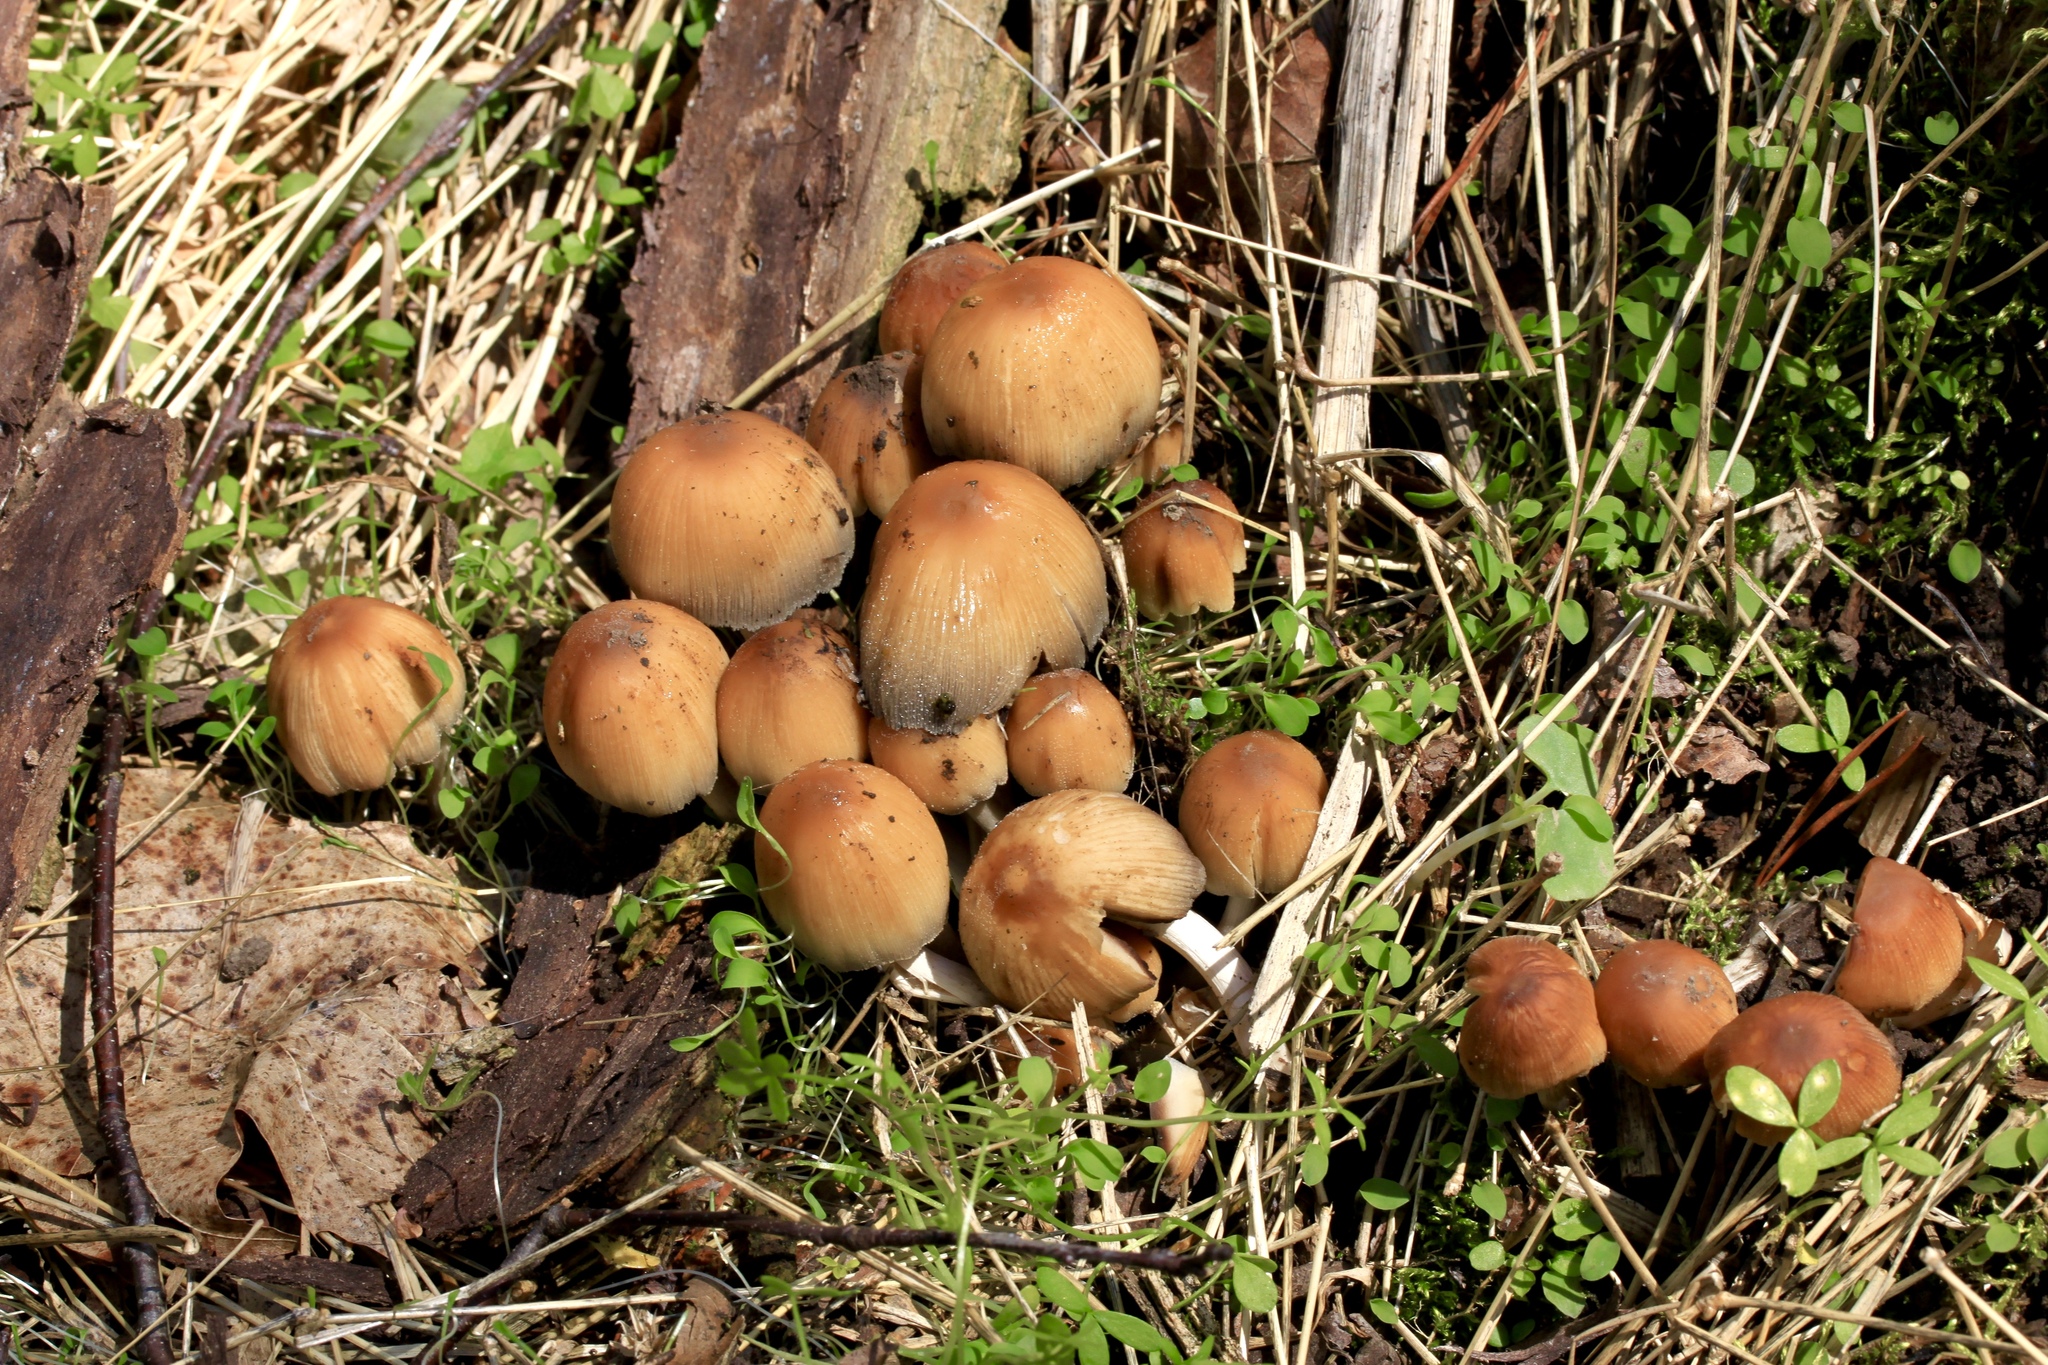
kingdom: Fungi
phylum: Basidiomycota
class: Agaricomycetes
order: Agaricales
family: Psathyrellaceae
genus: Coprinellus
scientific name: Coprinellus micaceus
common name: Glistening ink-cap
